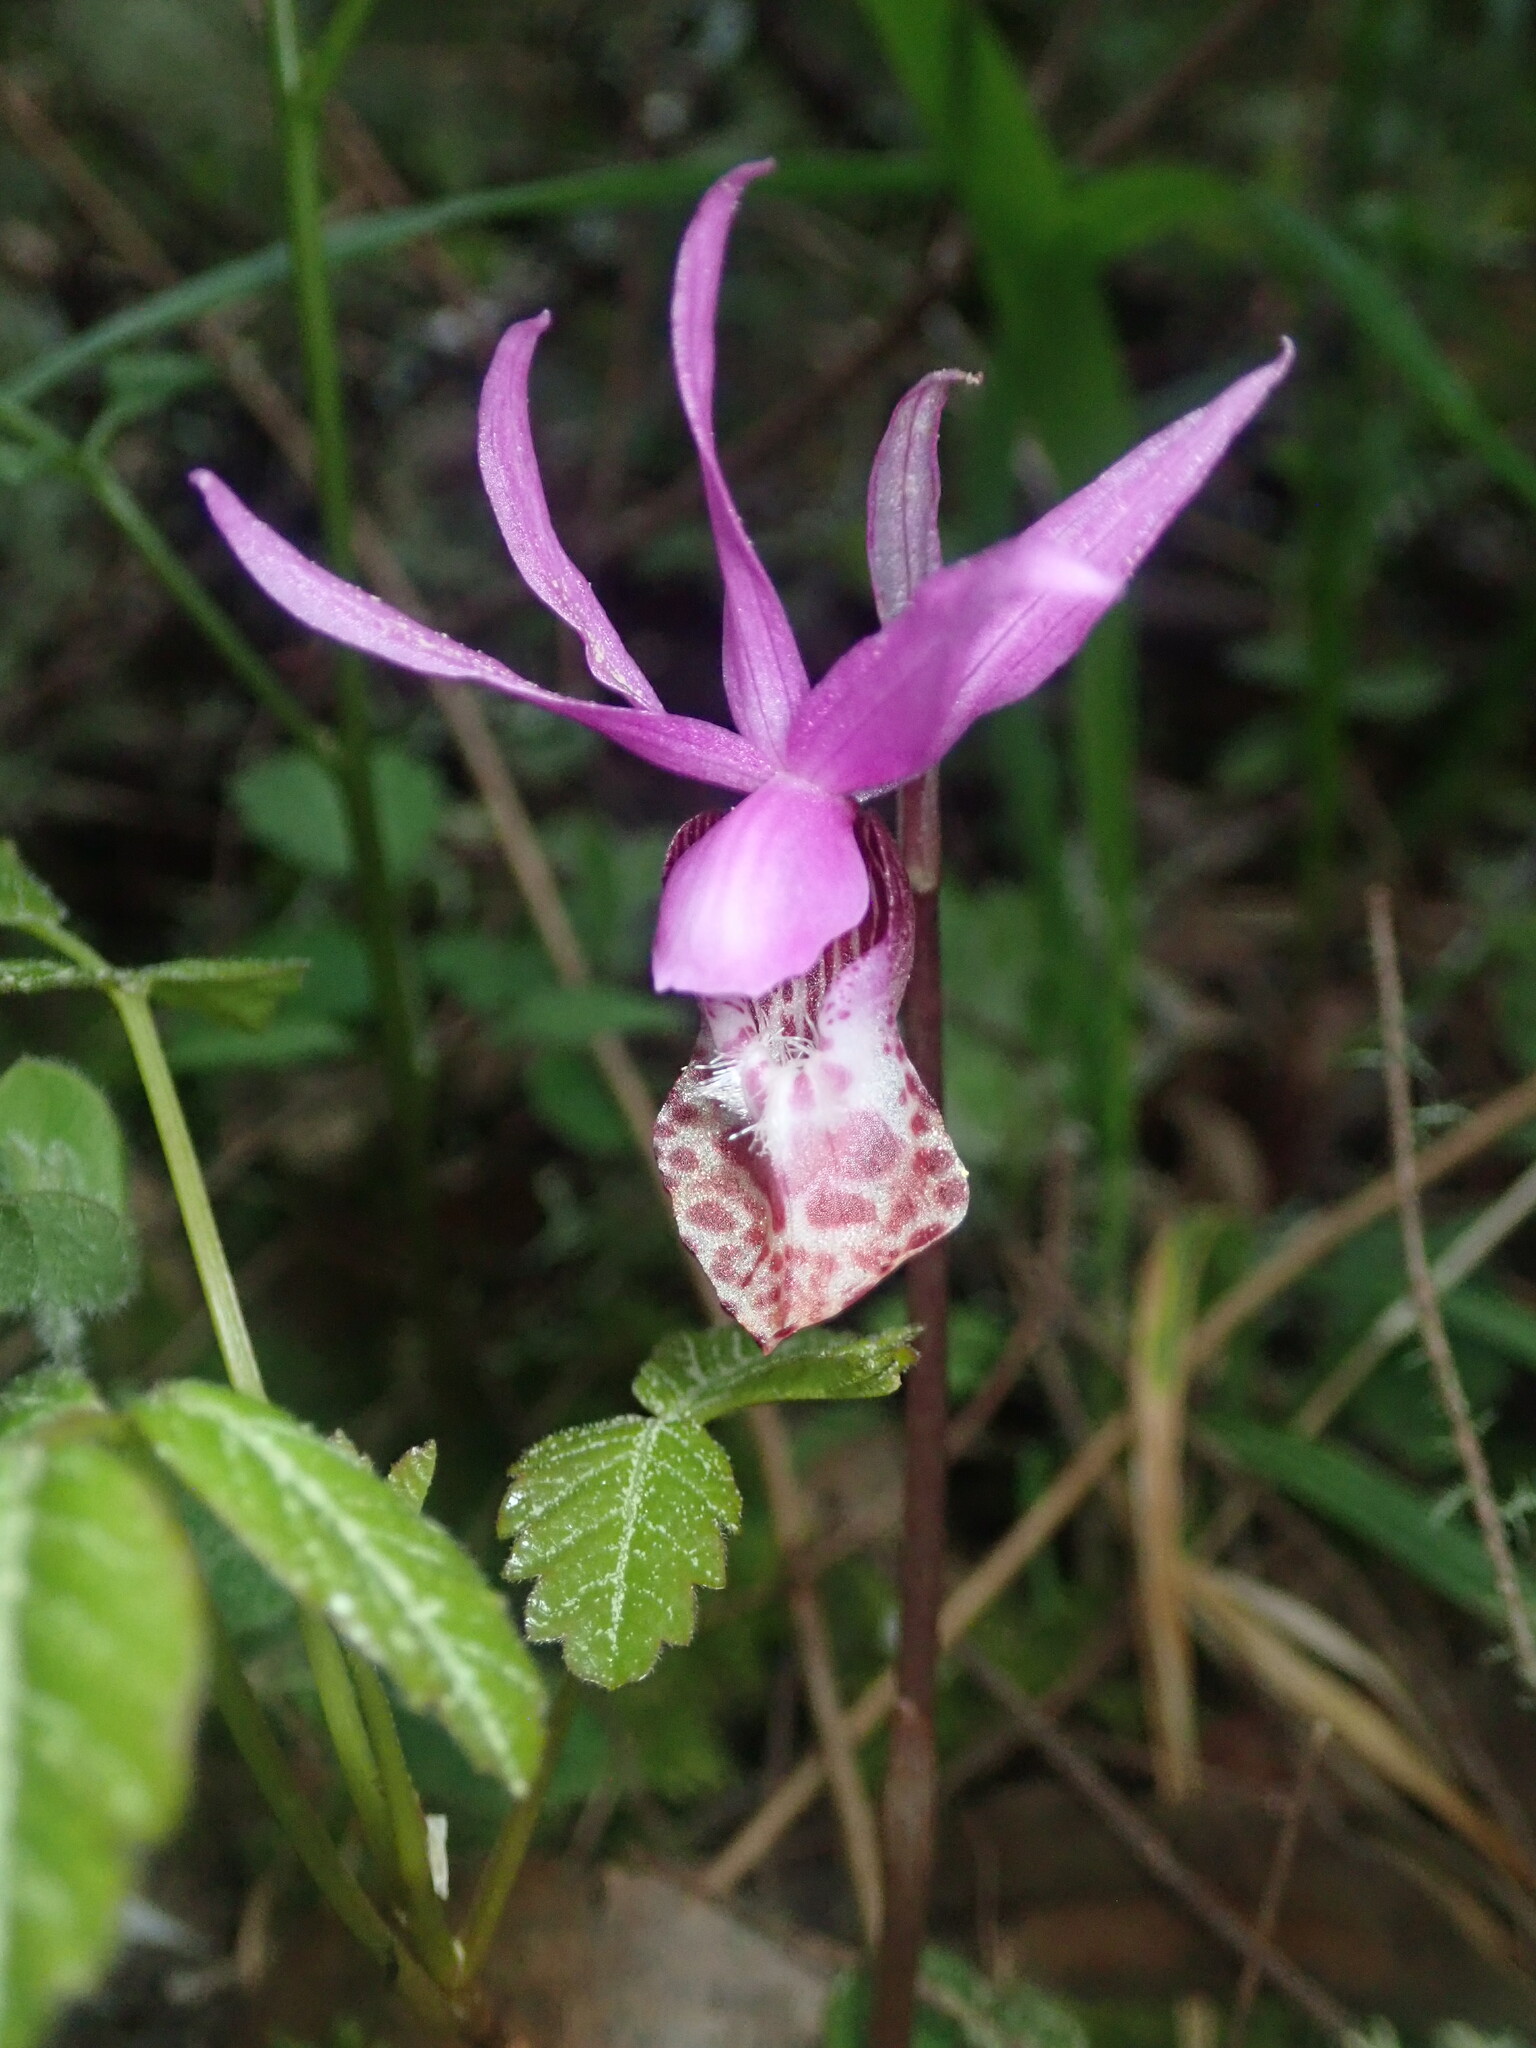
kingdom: Plantae
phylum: Tracheophyta
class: Liliopsida
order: Asparagales
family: Orchidaceae
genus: Calypso
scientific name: Calypso bulbosa
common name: Calypso
